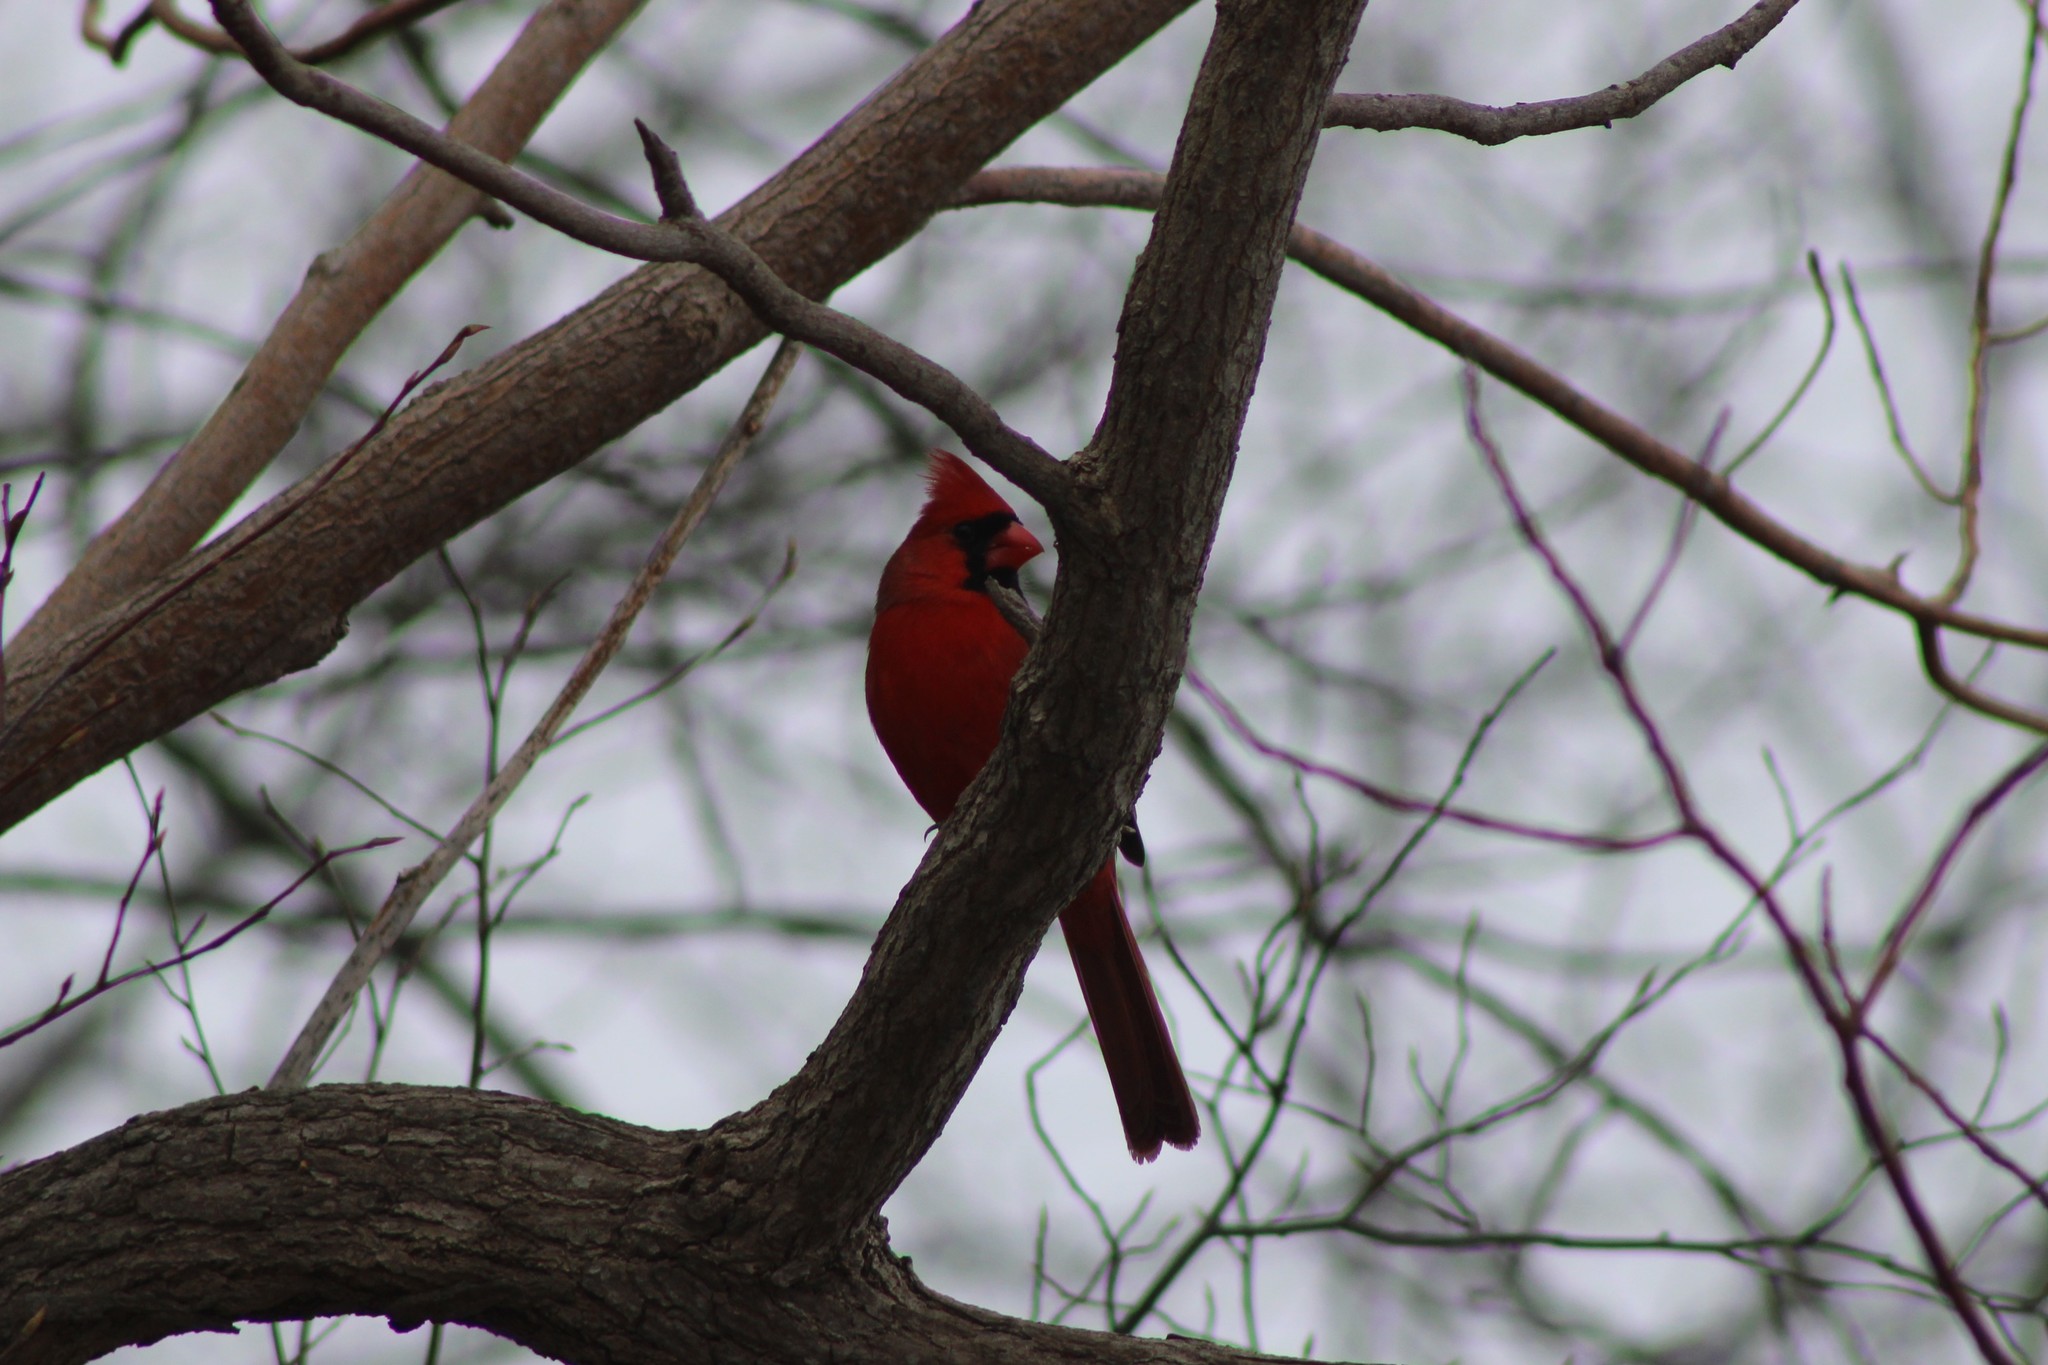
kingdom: Animalia
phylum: Chordata
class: Aves
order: Passeriformes
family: Cardinalidae
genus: Cardinalis
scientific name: Cardinalis cardinalis
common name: Northern cardinal
